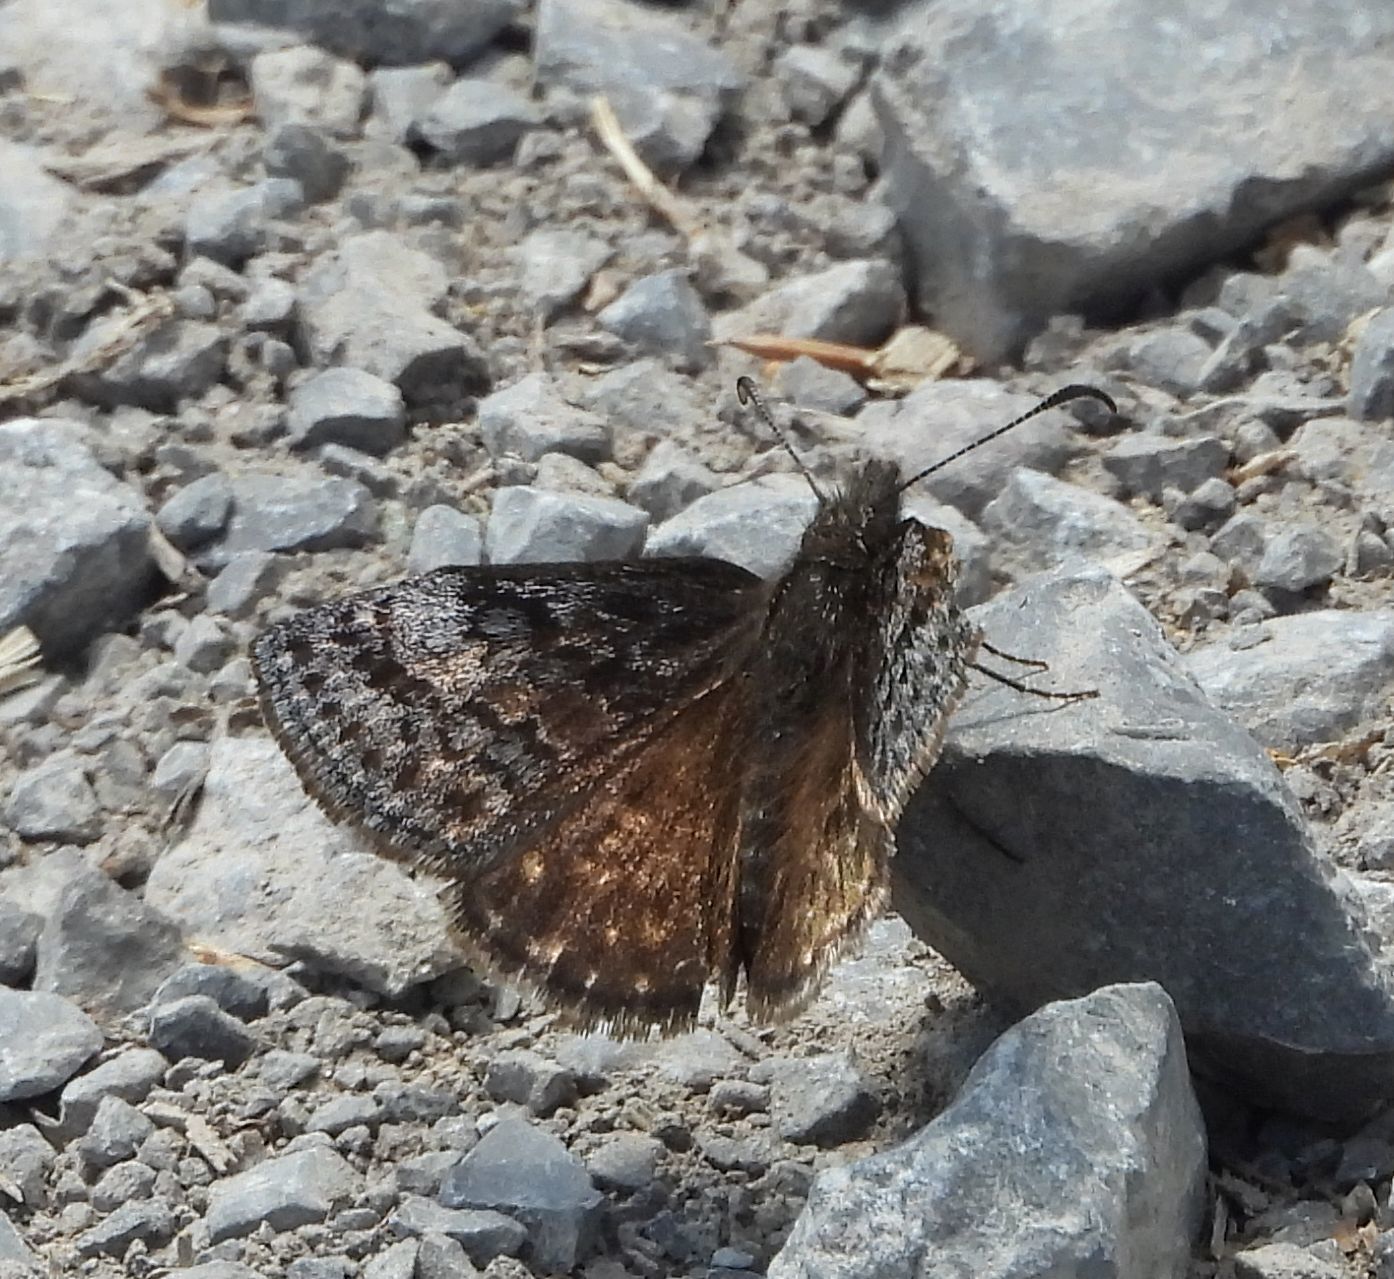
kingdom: Animalia
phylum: Arthropoda
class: Insecta
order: Lepidoptera
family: Hesperiidae
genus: Erynnis
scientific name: Erynnis icelus
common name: Dreamy duskywing
